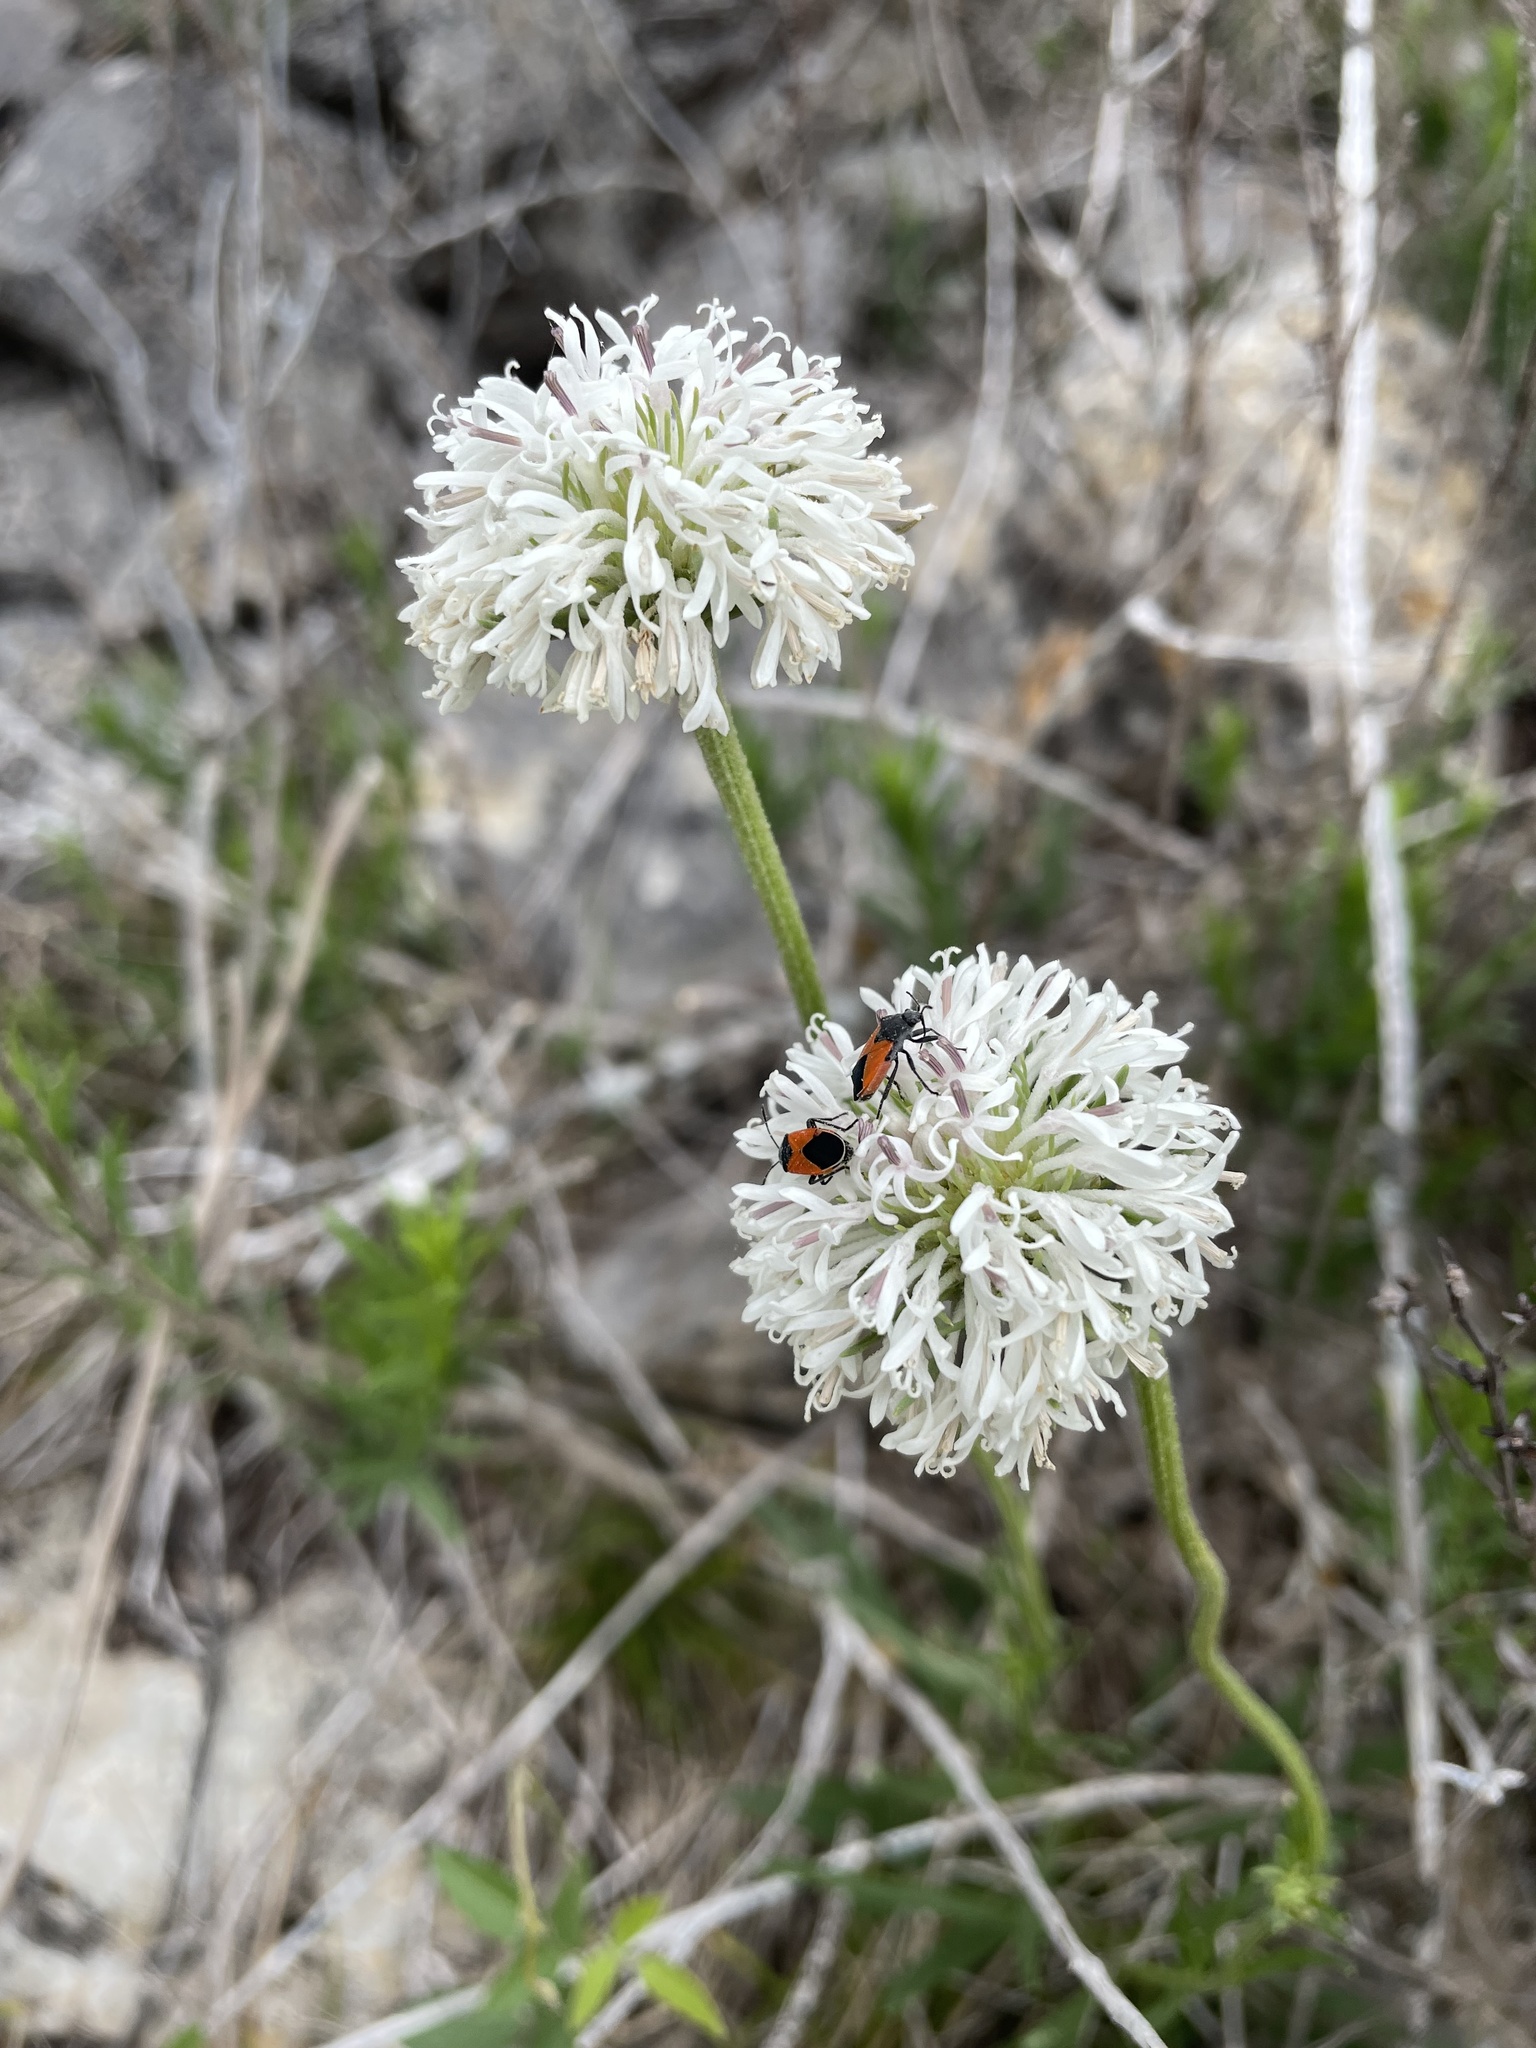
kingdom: Plantae
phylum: Tracheophyta
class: Magnoliopsida
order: Asterales
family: Asteraceae
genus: Marshallia
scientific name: Marshallia caespitosa
